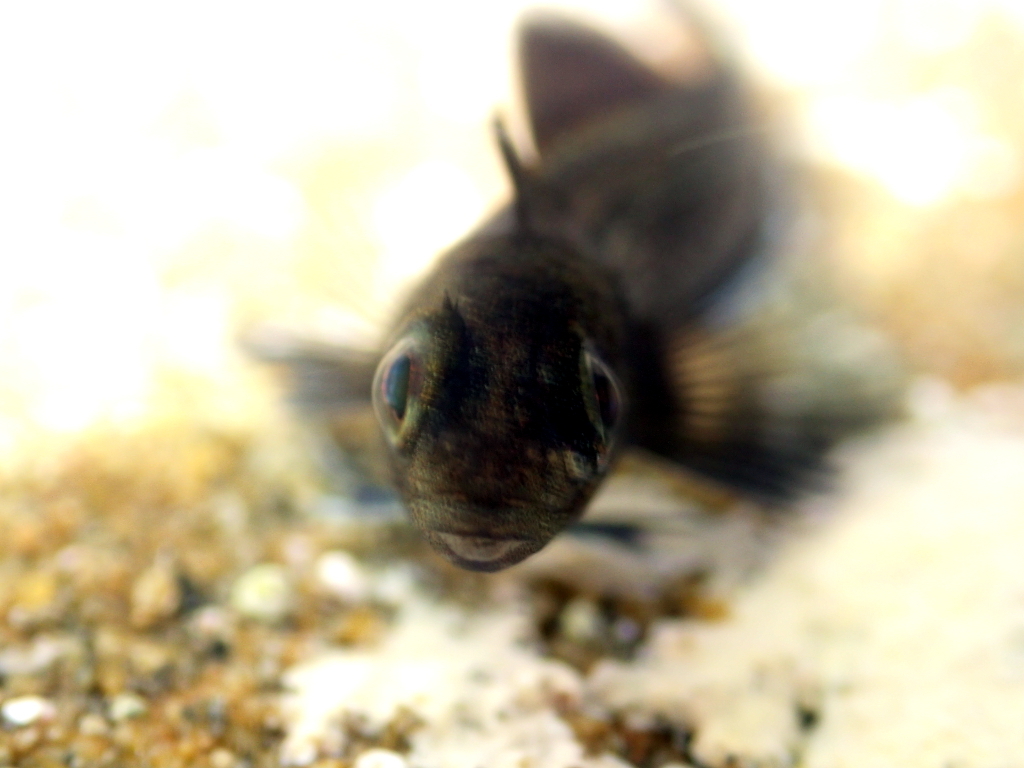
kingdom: Animalia
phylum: Chordata
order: Perciformes
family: Tripterygiidae
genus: Forsterygion
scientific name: Forsterygion lapillum
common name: Common triplefin
